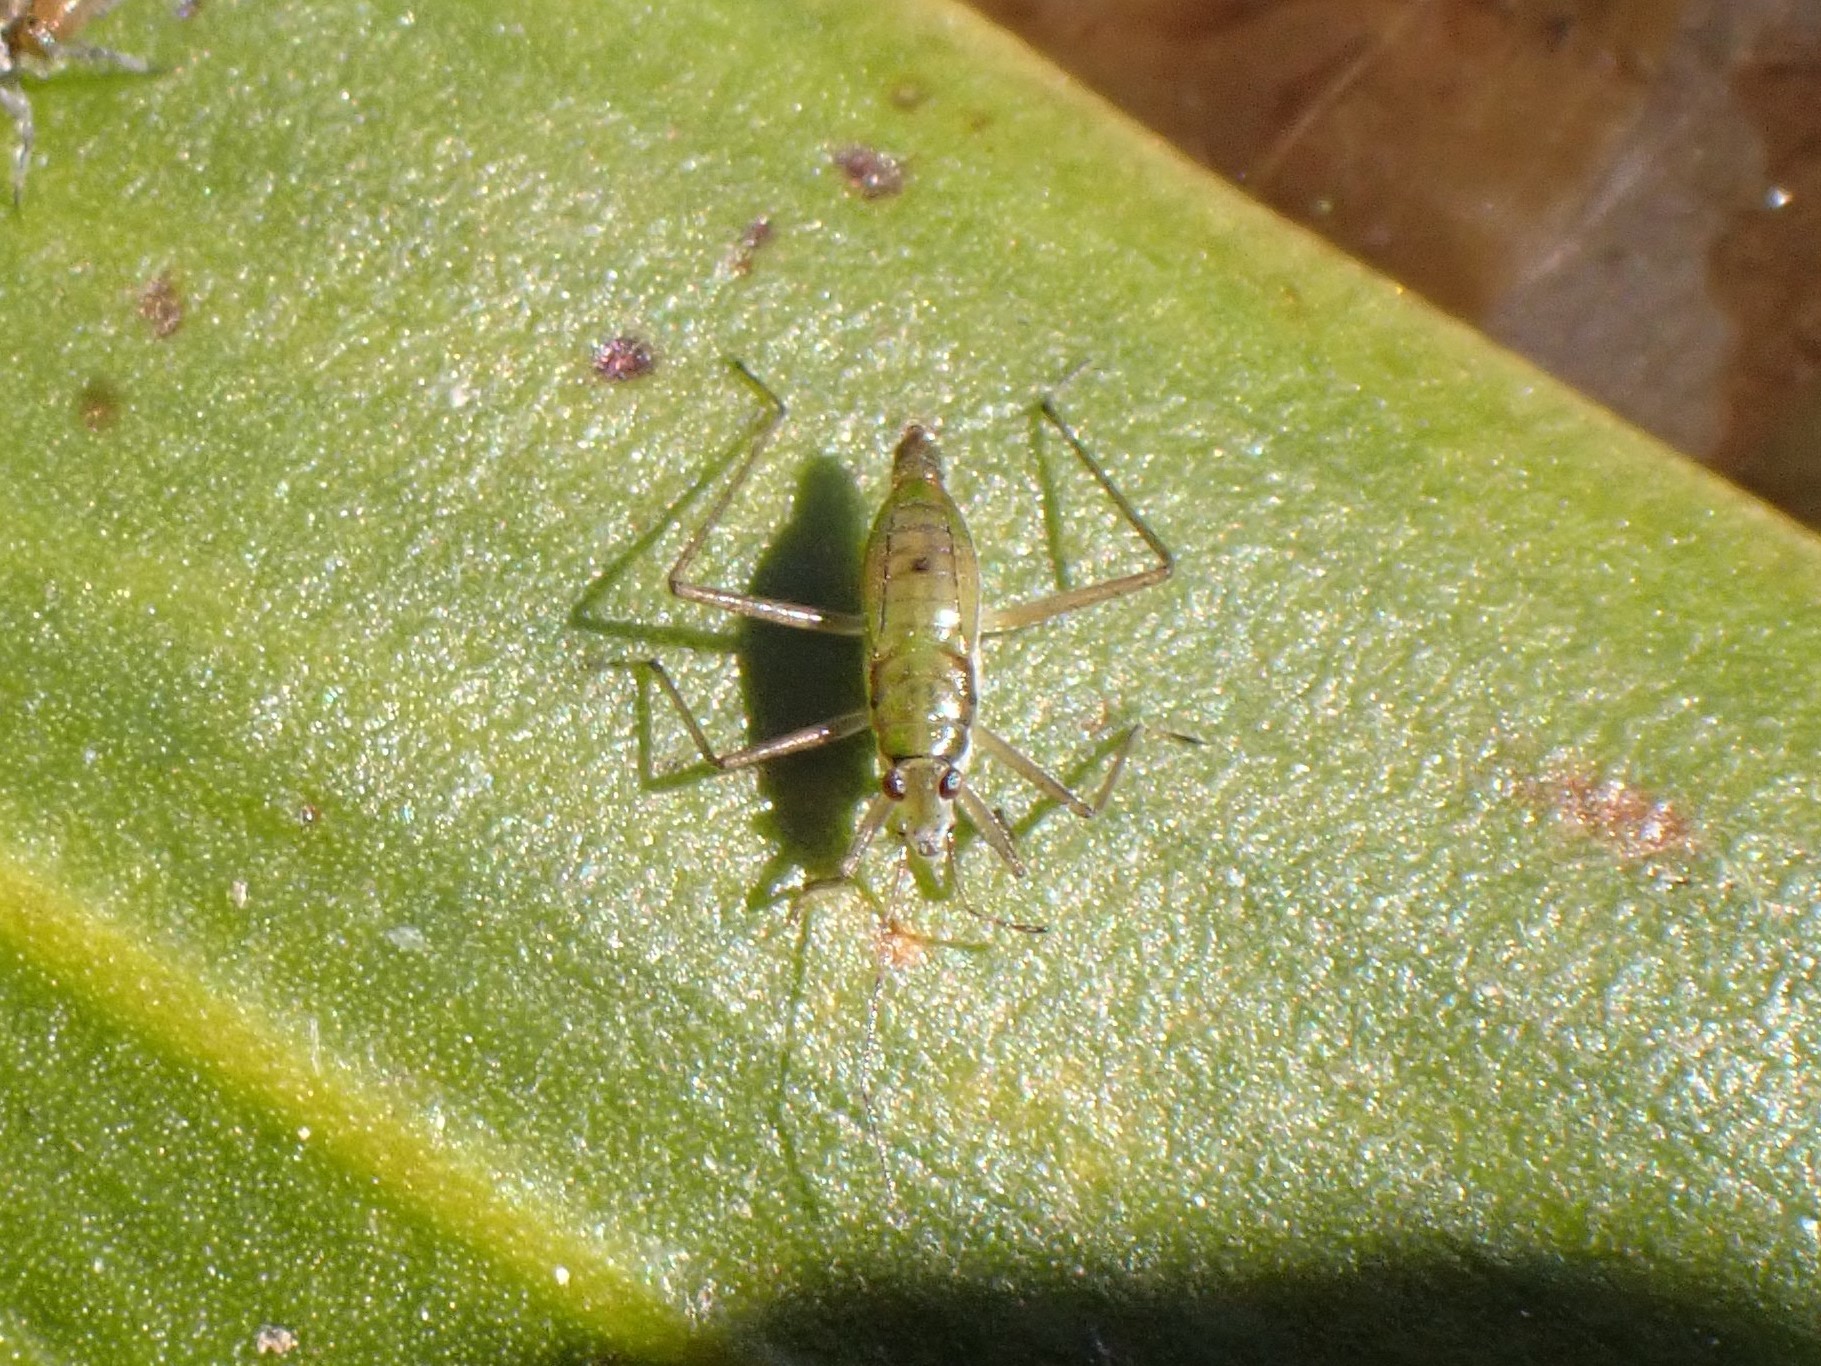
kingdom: Animalia
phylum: Arthropoda
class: Insecta
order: Hemiptera
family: Mesoveliidae
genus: Mesovelia
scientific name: Mesovelia mulsanti
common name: Water treaders
